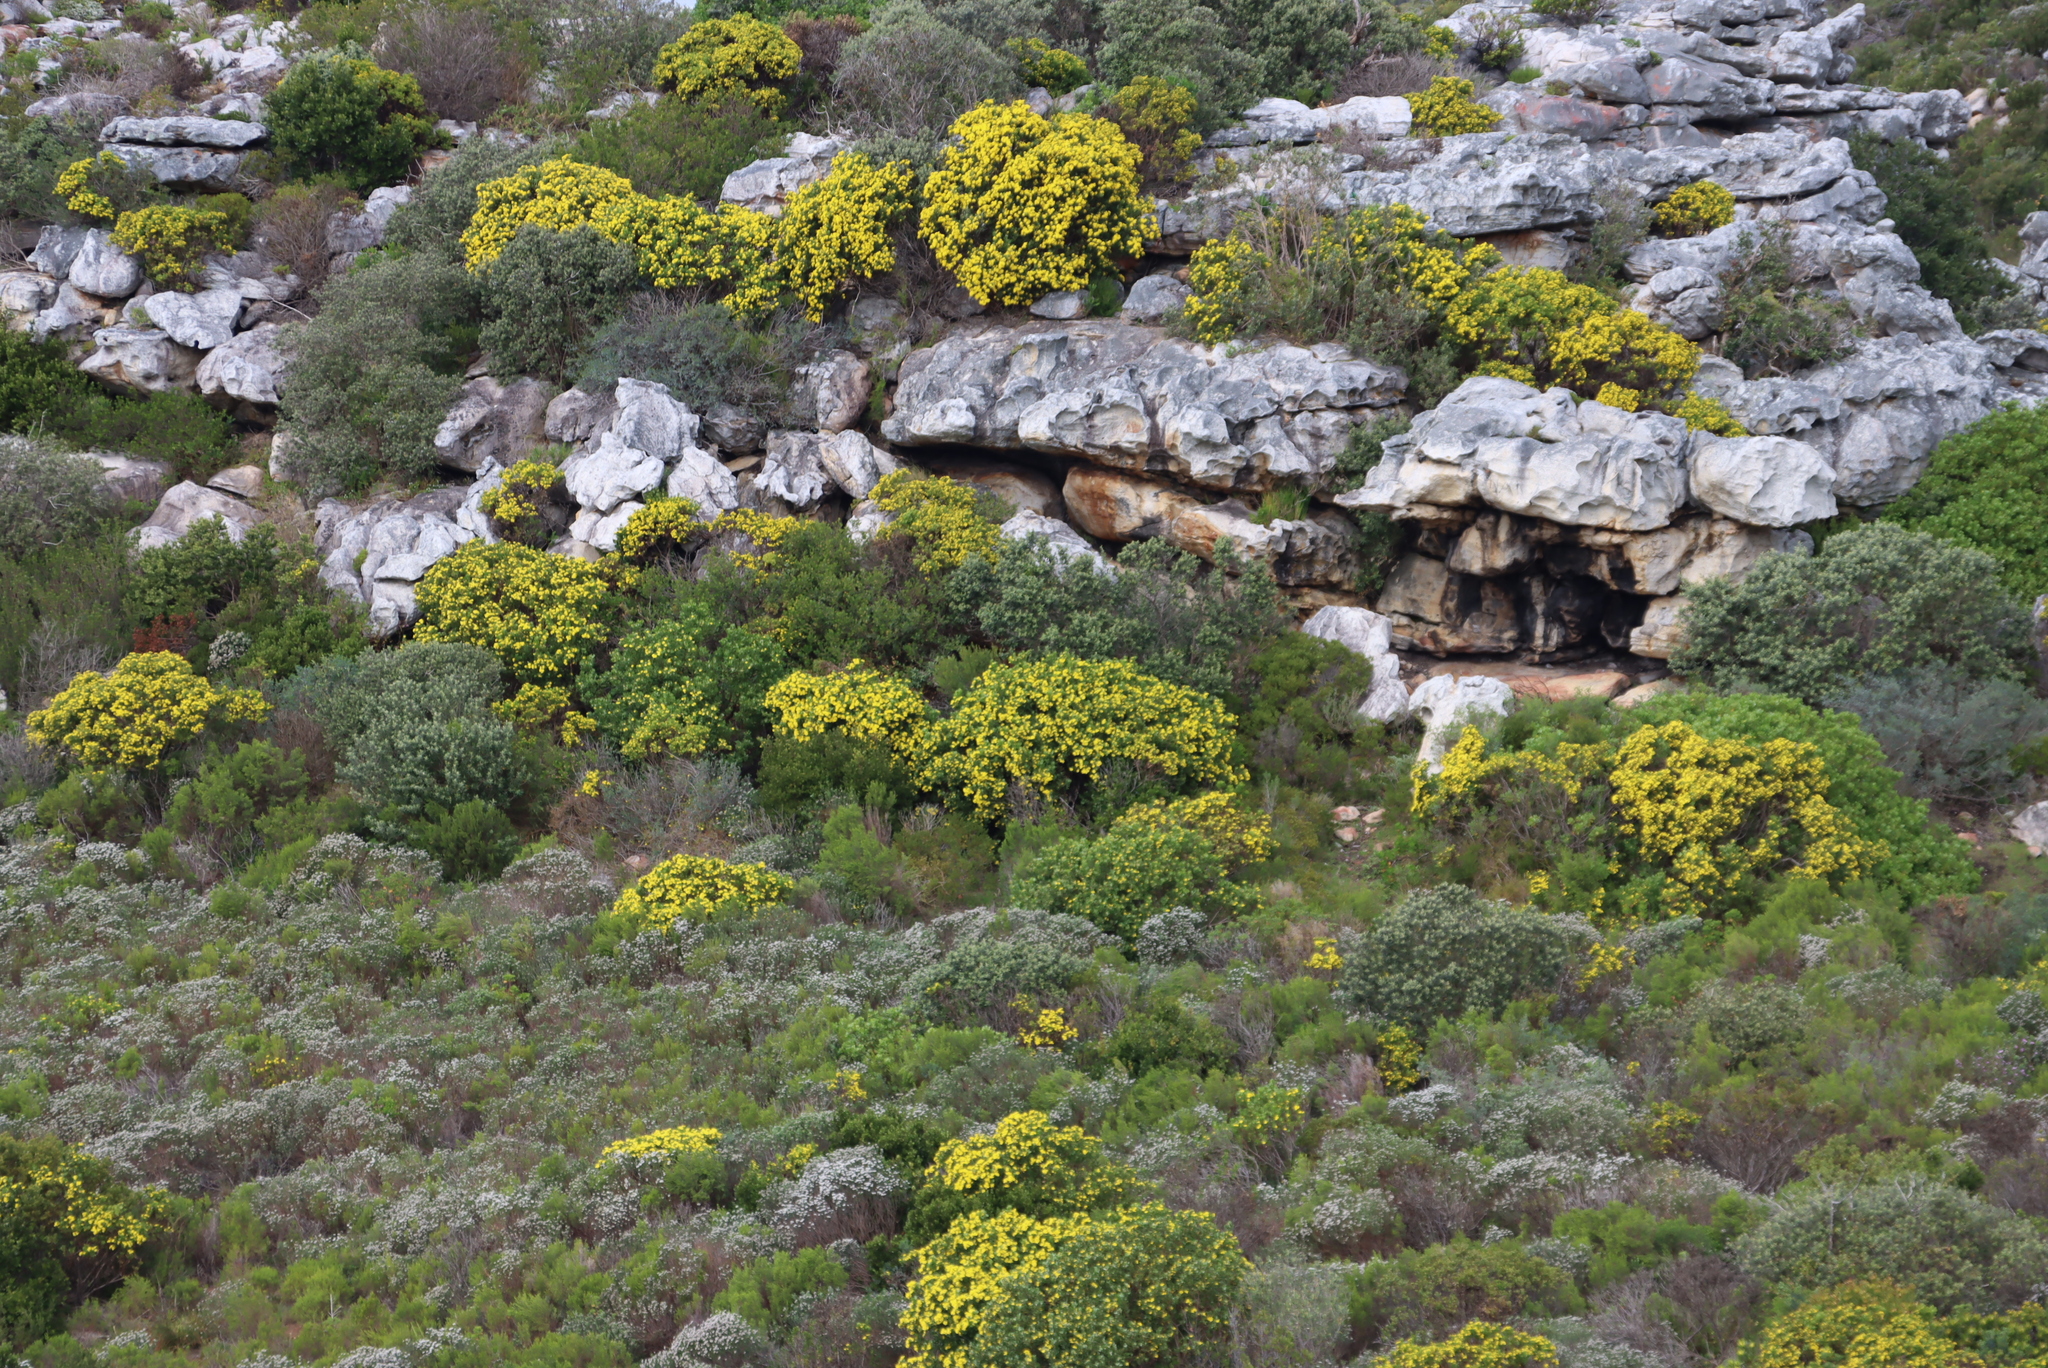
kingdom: Plantae
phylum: Tracheophyta
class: Magnoliopsida
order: Asterales
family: Asteraceae
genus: Osteospermum
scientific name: Osteospermum moniliferum
